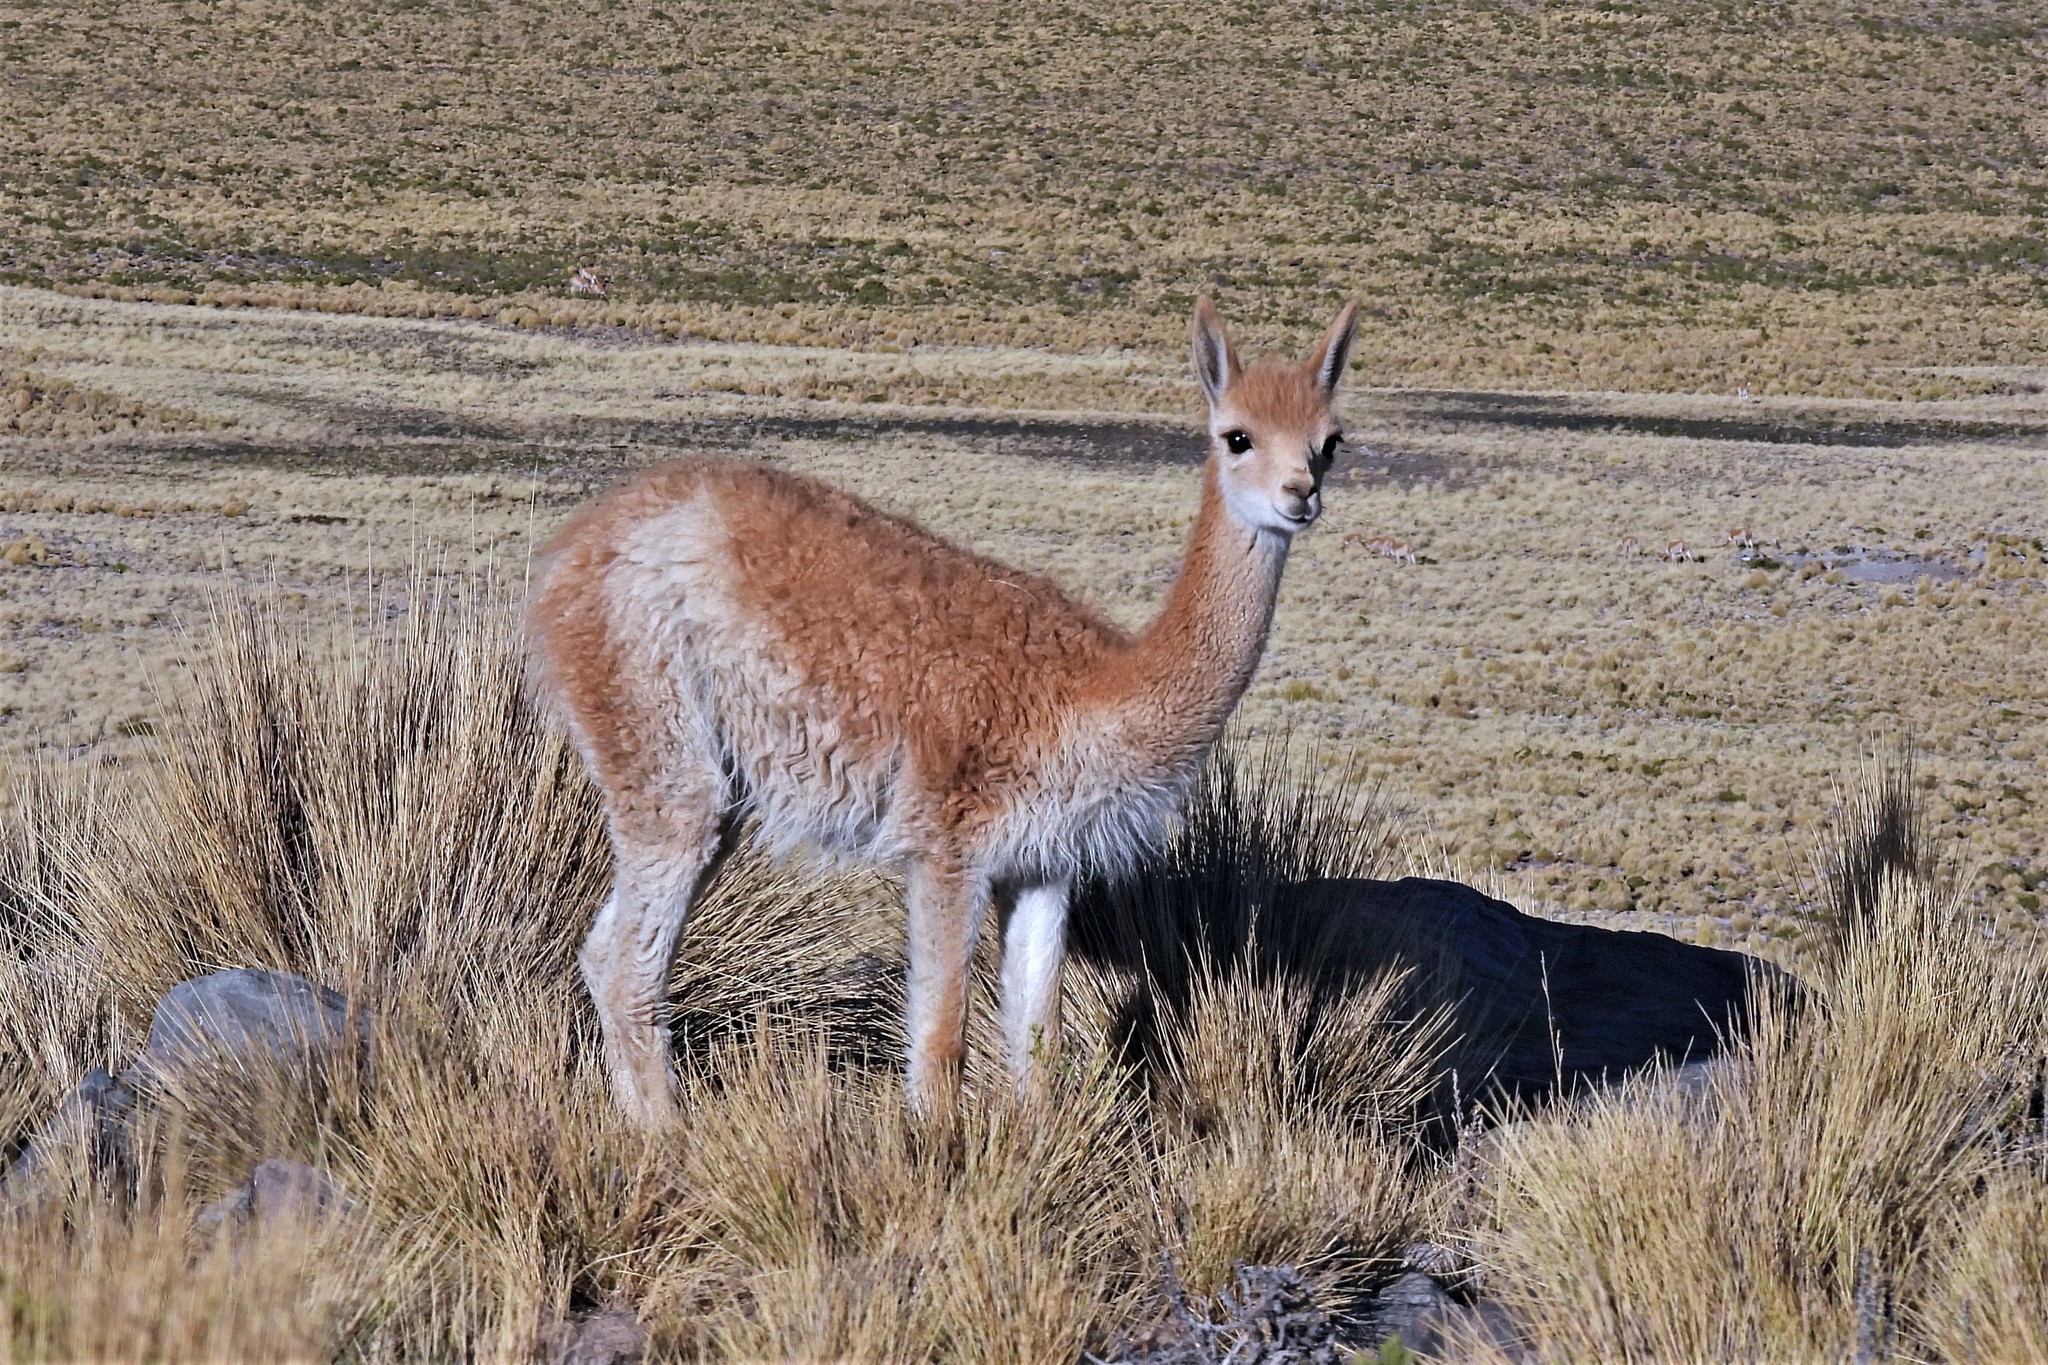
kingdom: Animalia
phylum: Chordata
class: Mammalia
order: Artiodactyla
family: Camelidae
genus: Vicugna
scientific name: Vicugna vicugna
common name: Vicugna
